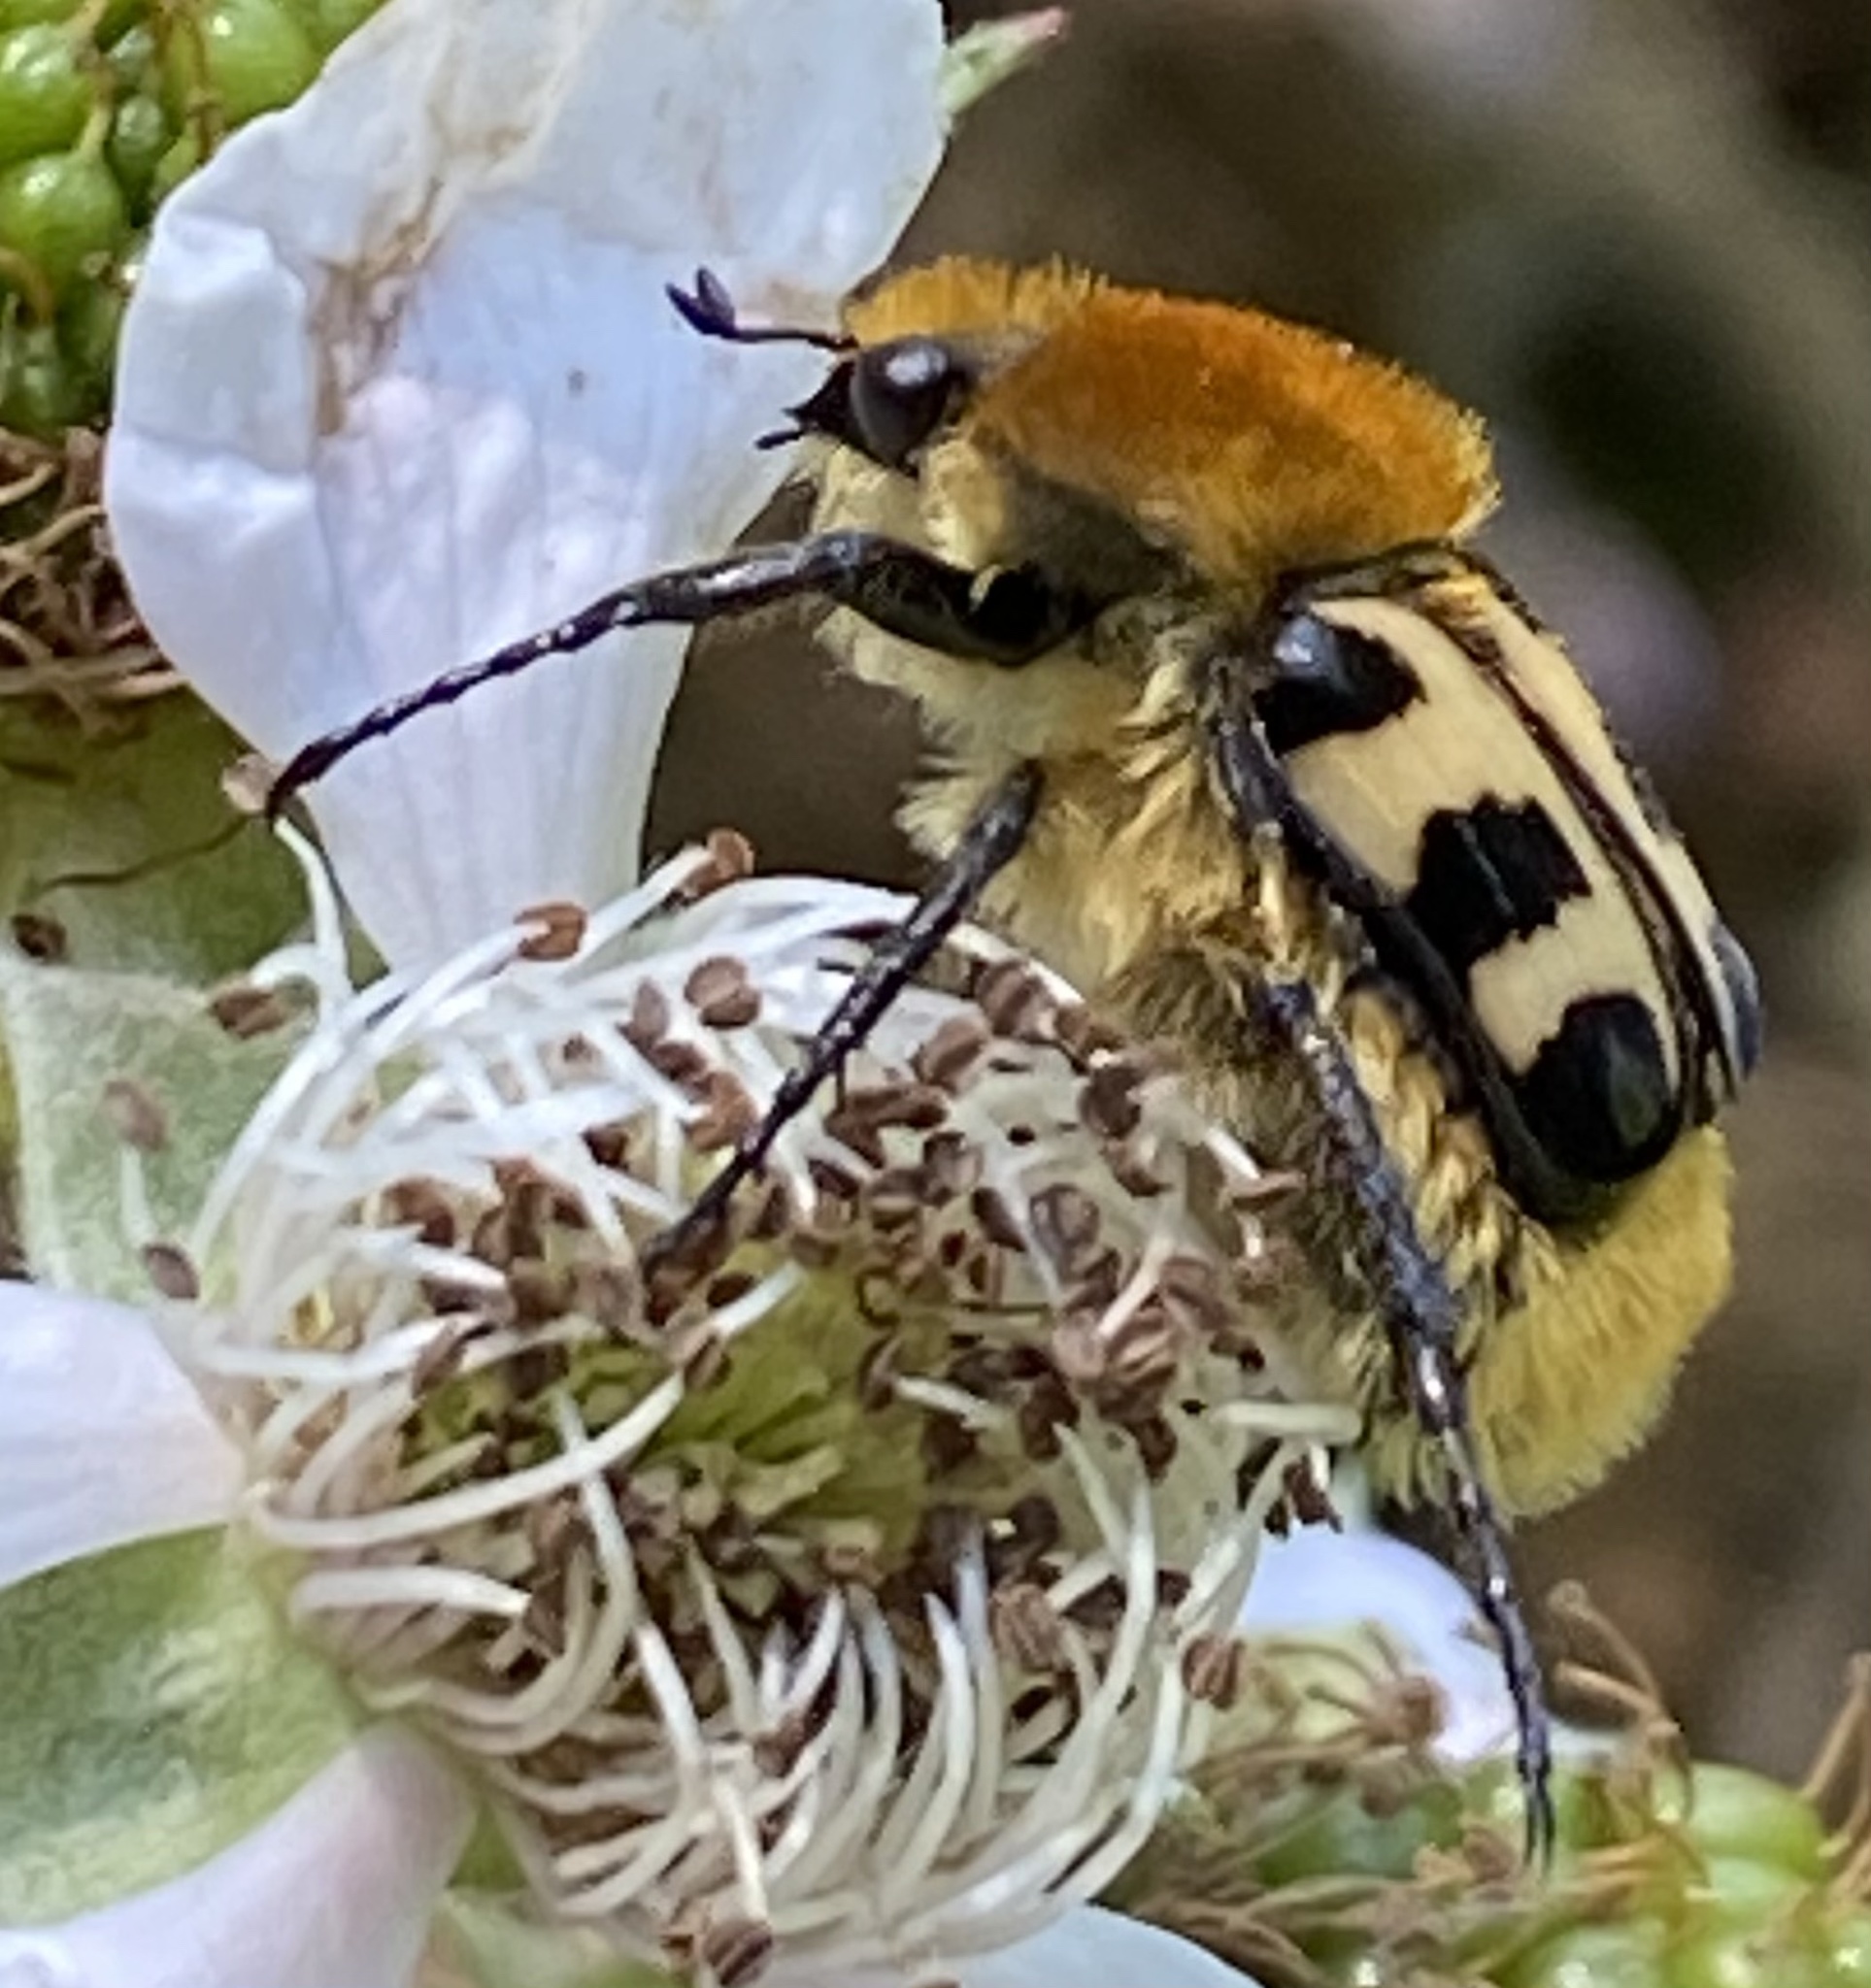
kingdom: Animalia
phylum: Arthropoda
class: Insecta
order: Coleoptera
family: Scarabaeidae
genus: Trichius
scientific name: Trichius gallicus
